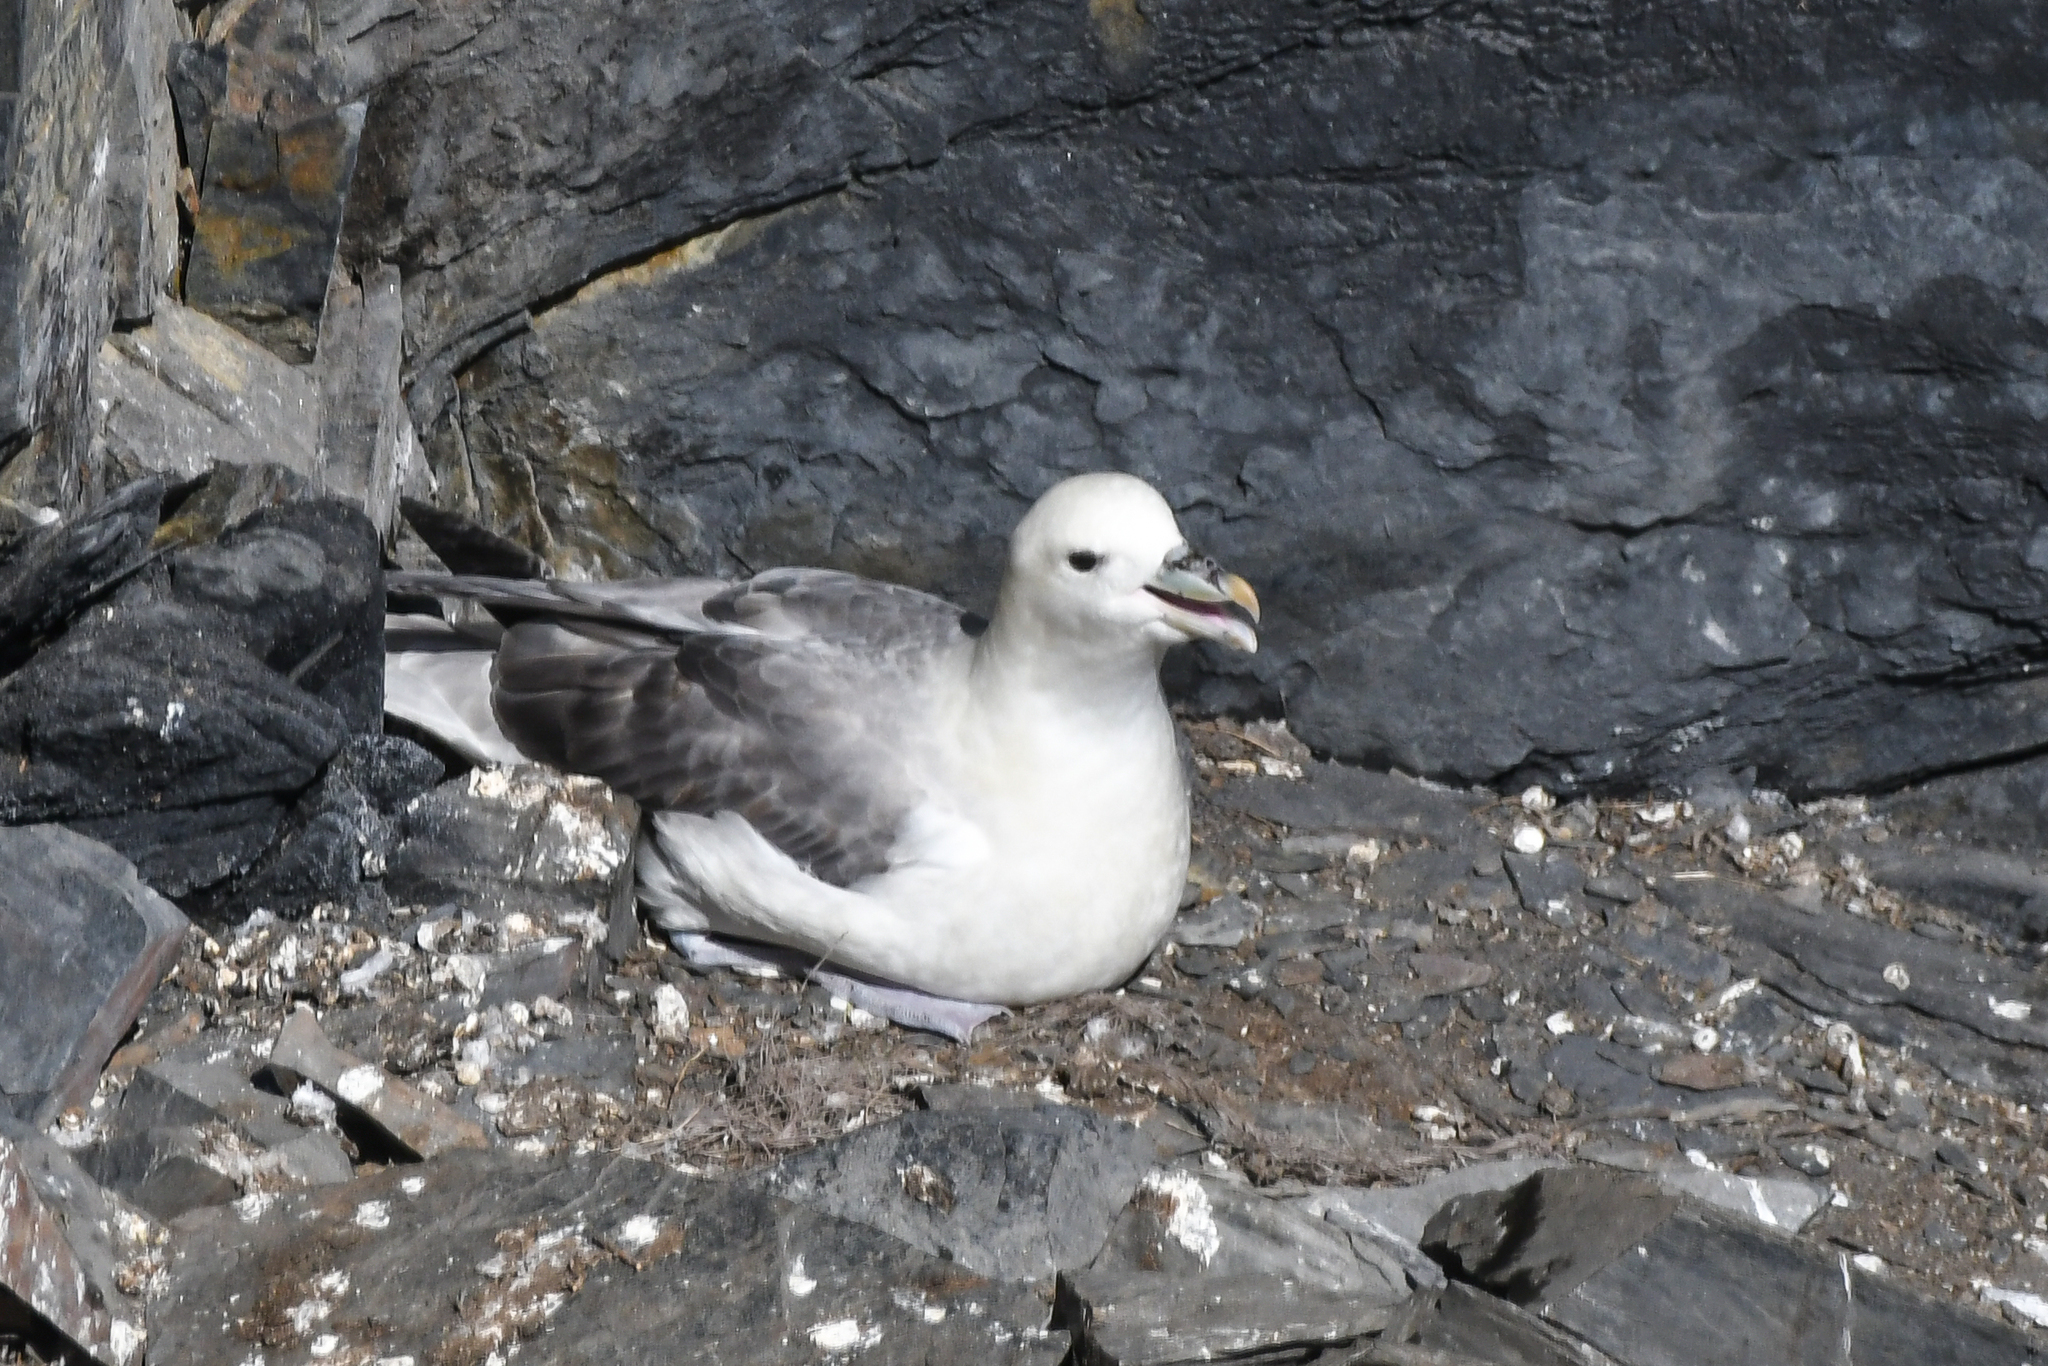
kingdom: Animalia
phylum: Chordata
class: Aves
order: Procellariiformes
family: Procellariidae
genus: Fulmarus
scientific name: Fulmarus glacialis
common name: Northern fulmar
